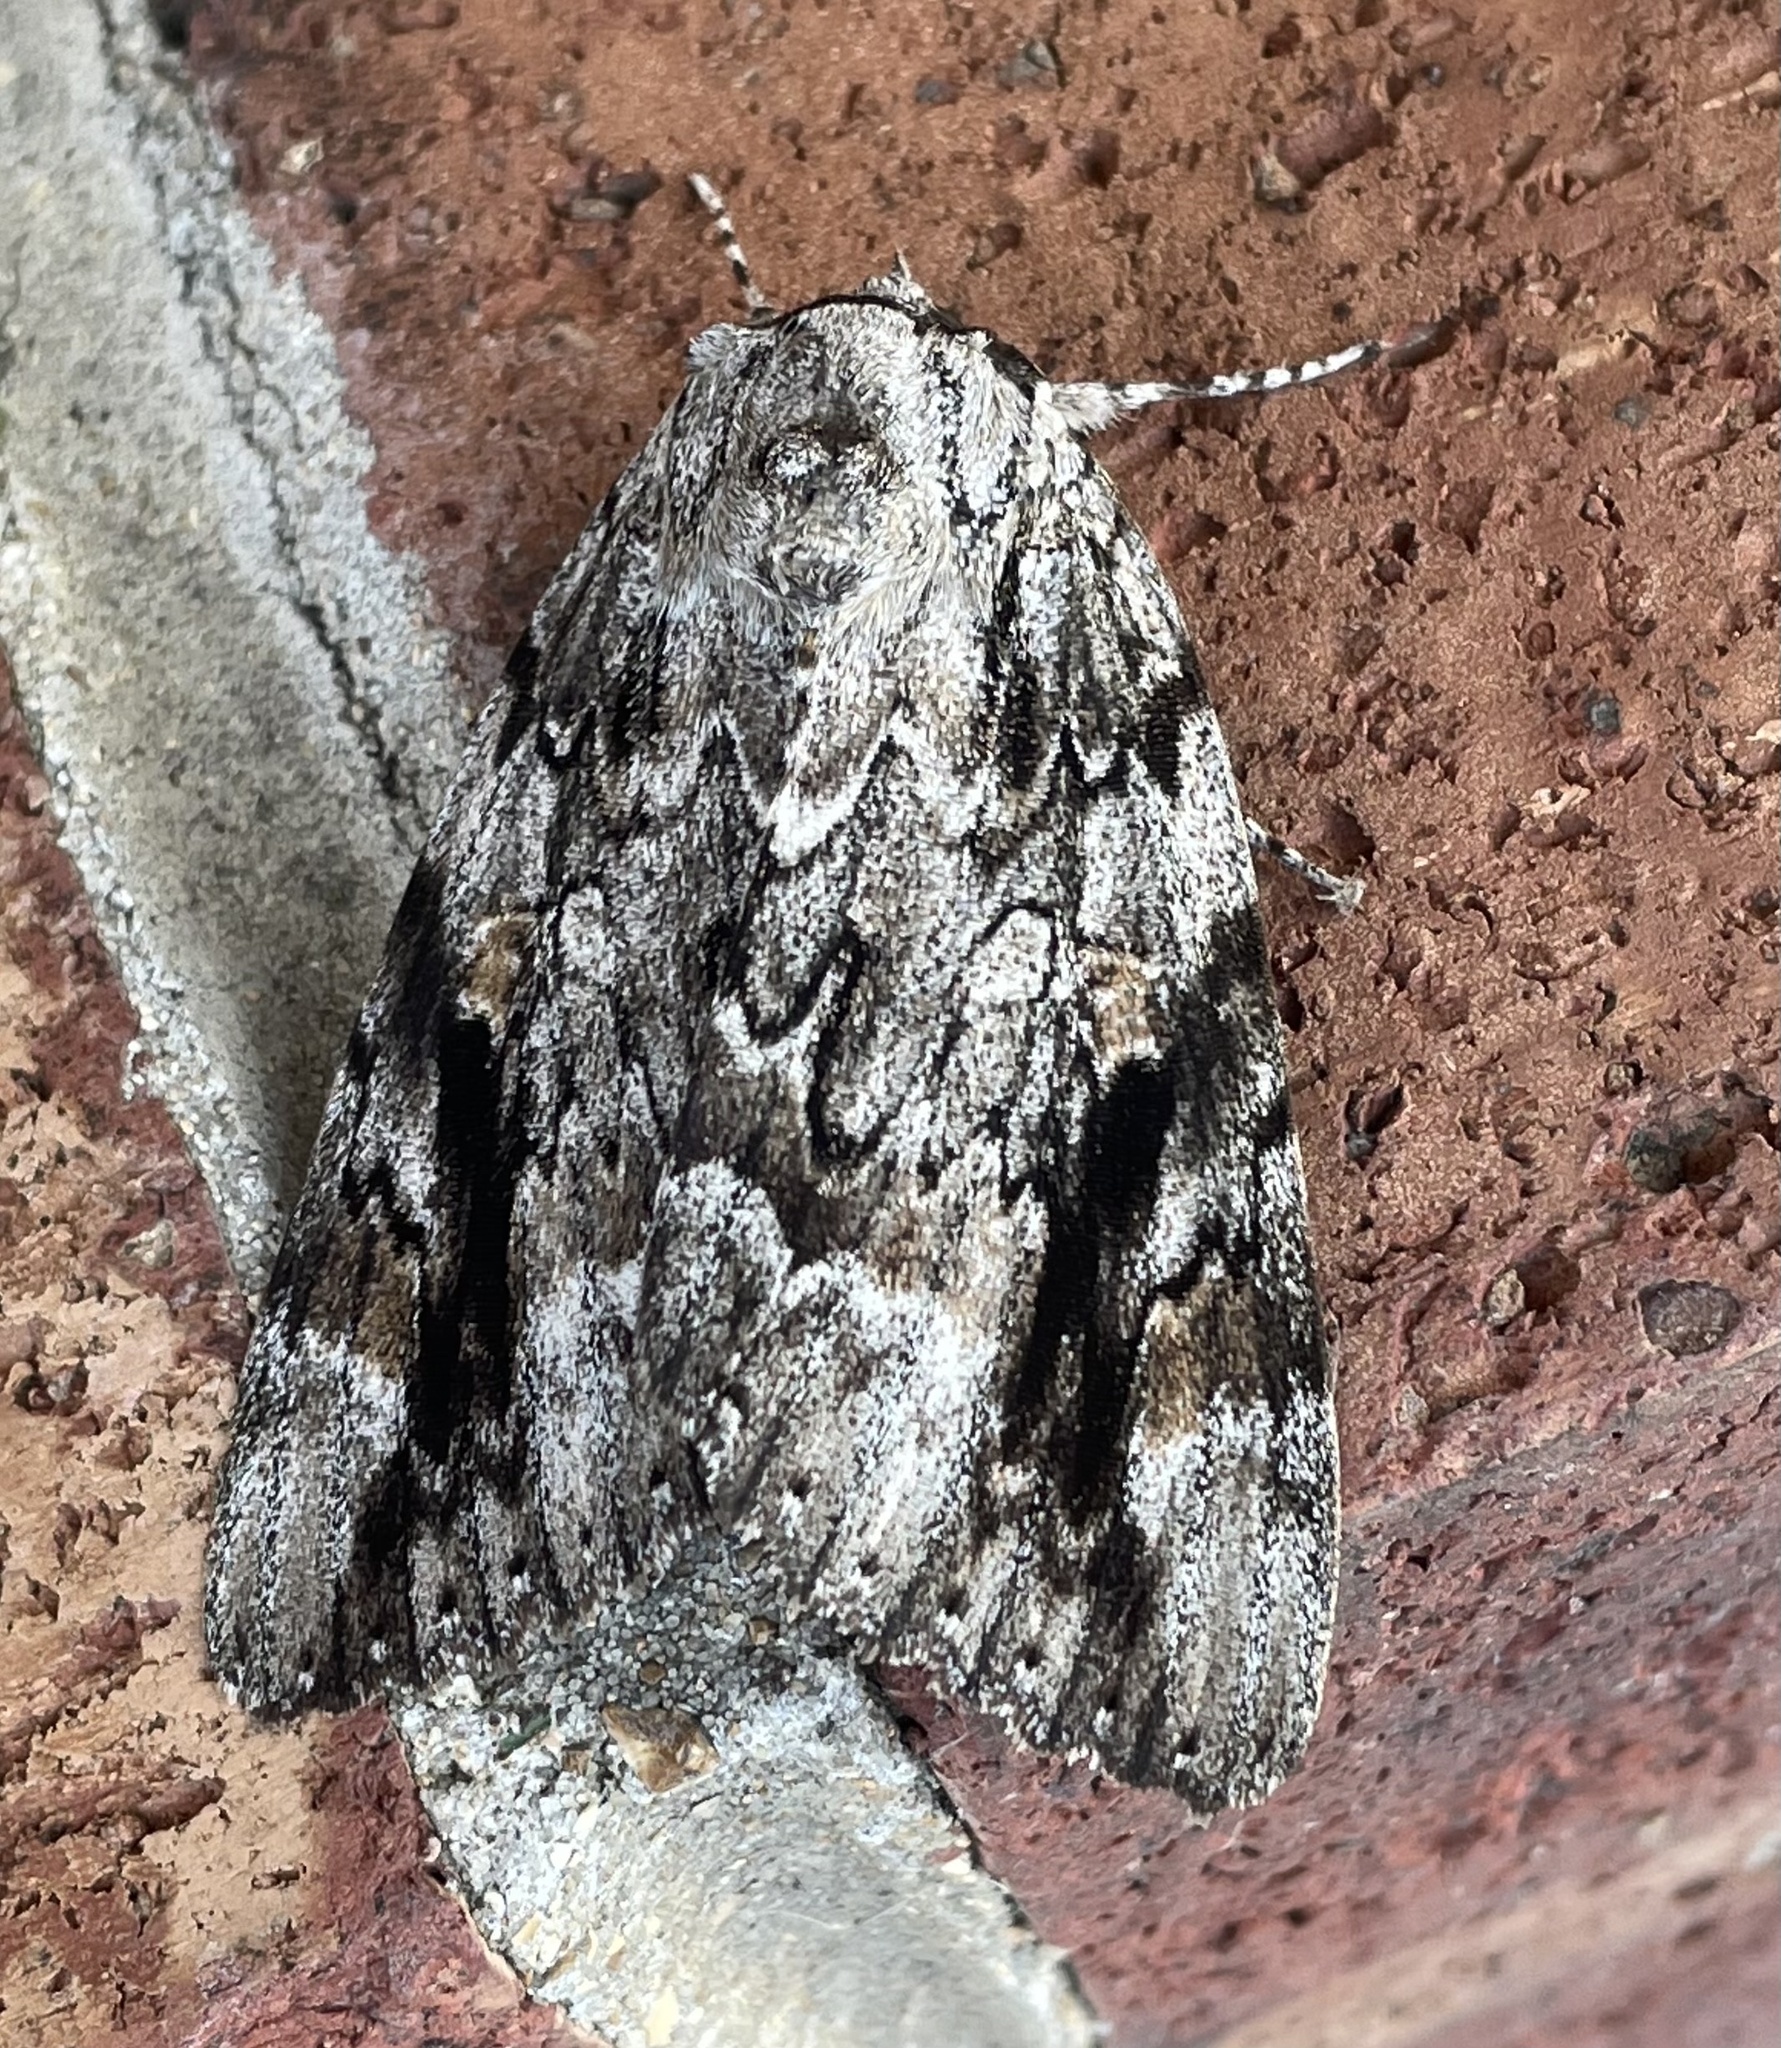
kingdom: Animalia
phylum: Arthropoda
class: Insecta
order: Lepidoptera
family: Erebidae
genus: Catocala
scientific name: Catocala maestosa
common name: Sad underwing
